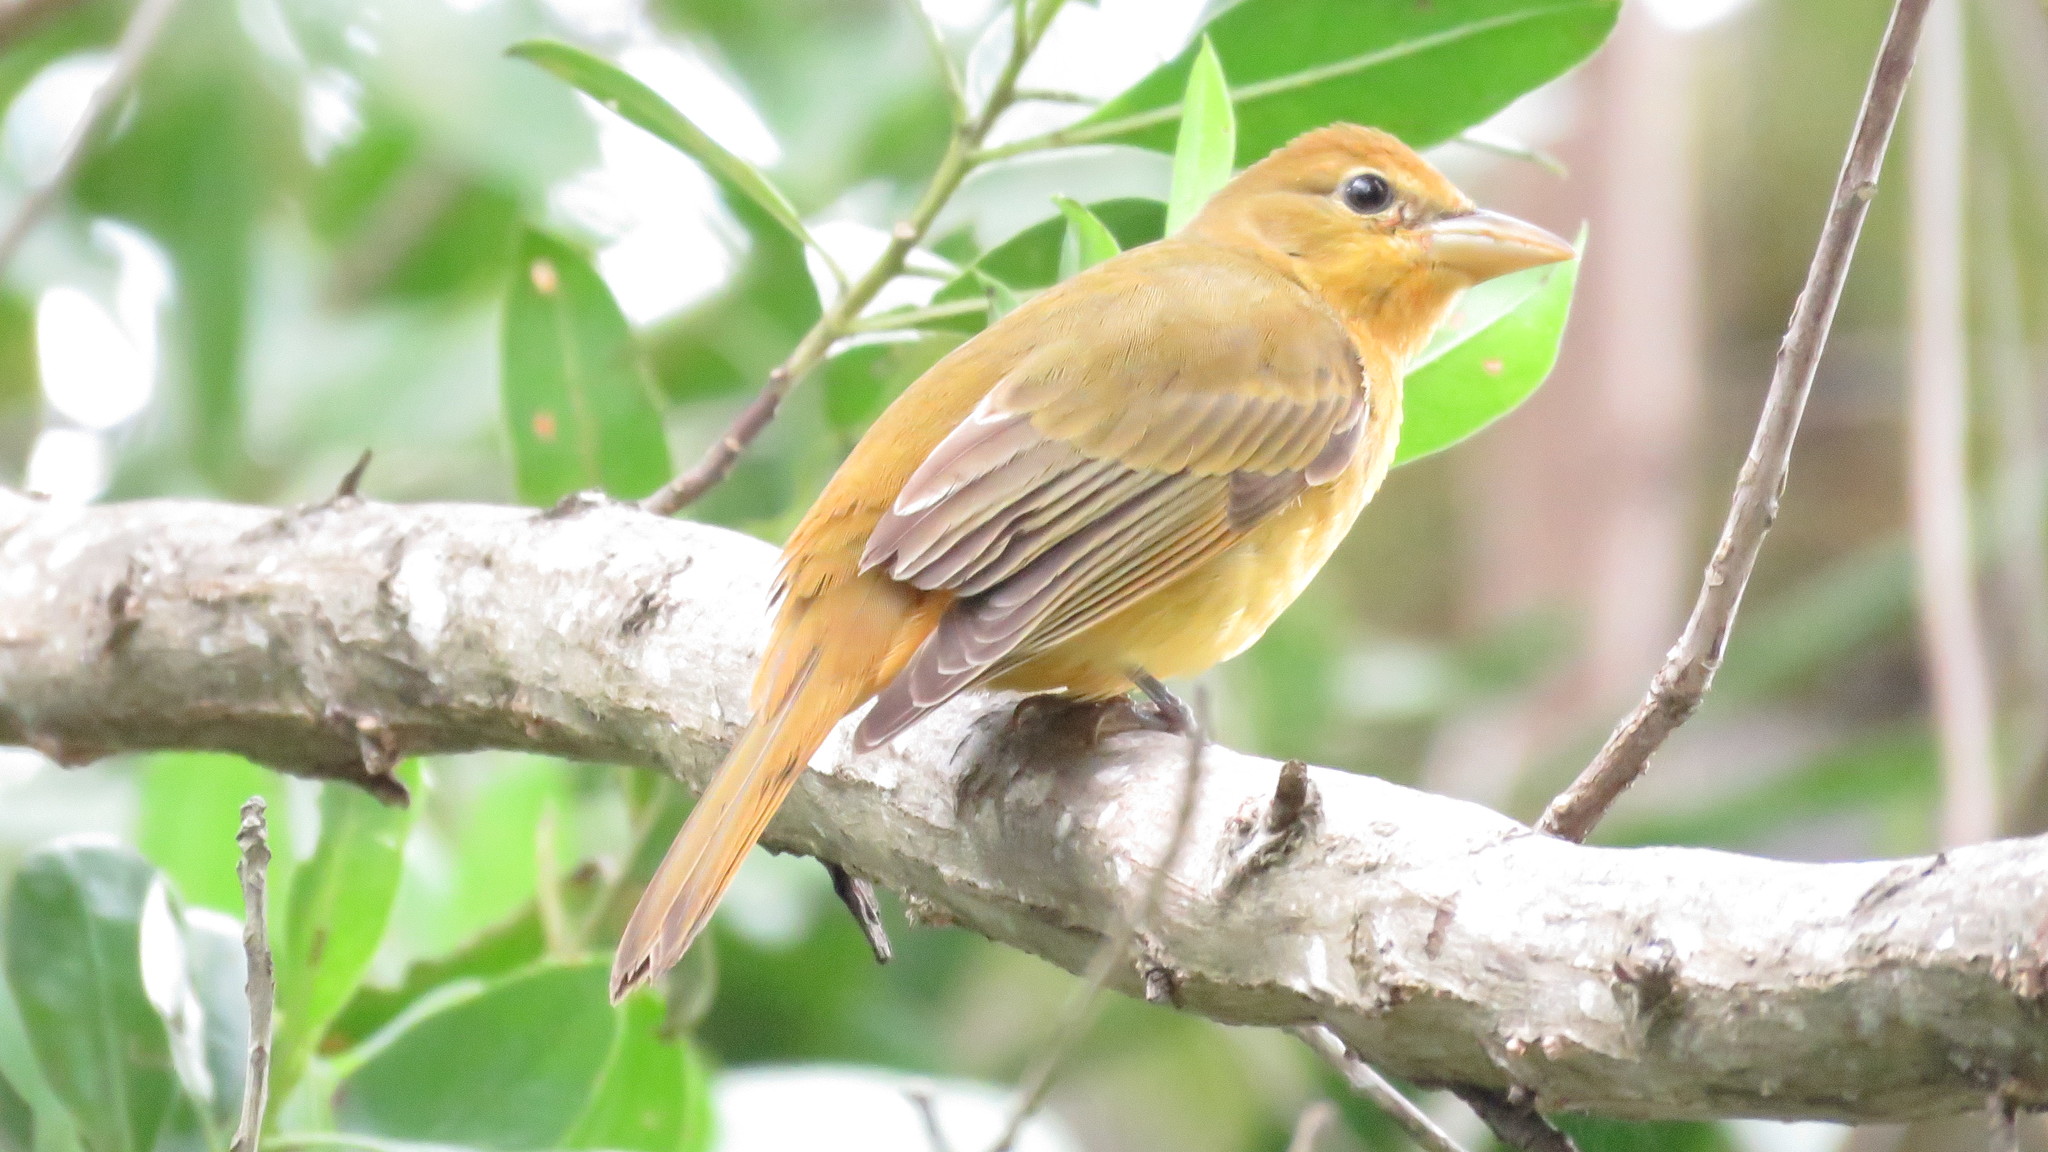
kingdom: Animalia
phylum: Chordata
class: Aves
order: Passeriformes
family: Cardinalidae
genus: Piranga
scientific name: Piranga rubra
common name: Summer tanager
